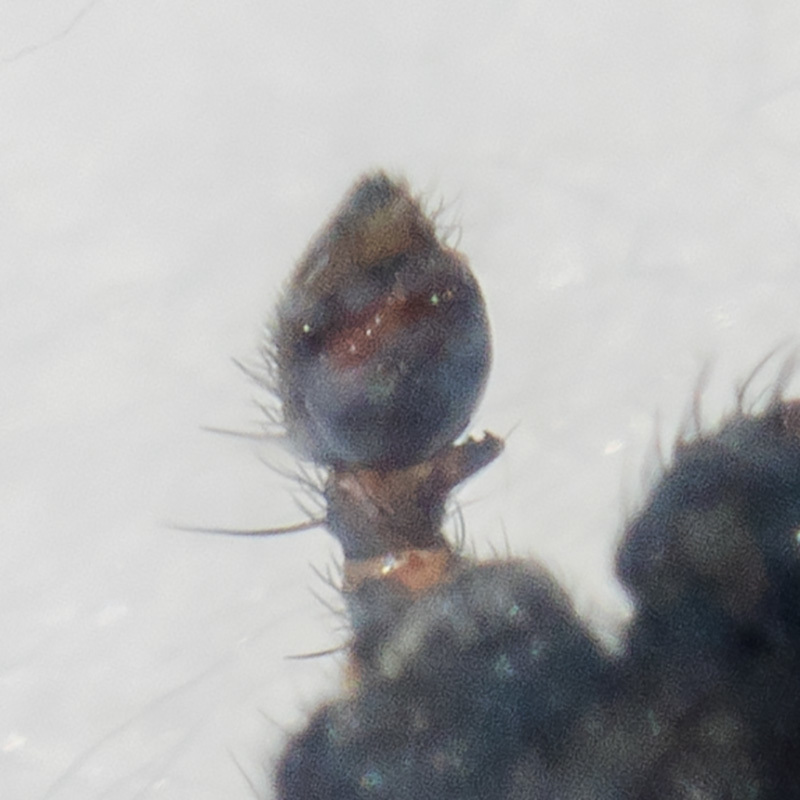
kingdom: Animalia
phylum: Arthropoda
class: Arachnida
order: Araneae
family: Philodromidae
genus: Thanatus
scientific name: Thanatus imbecillus
